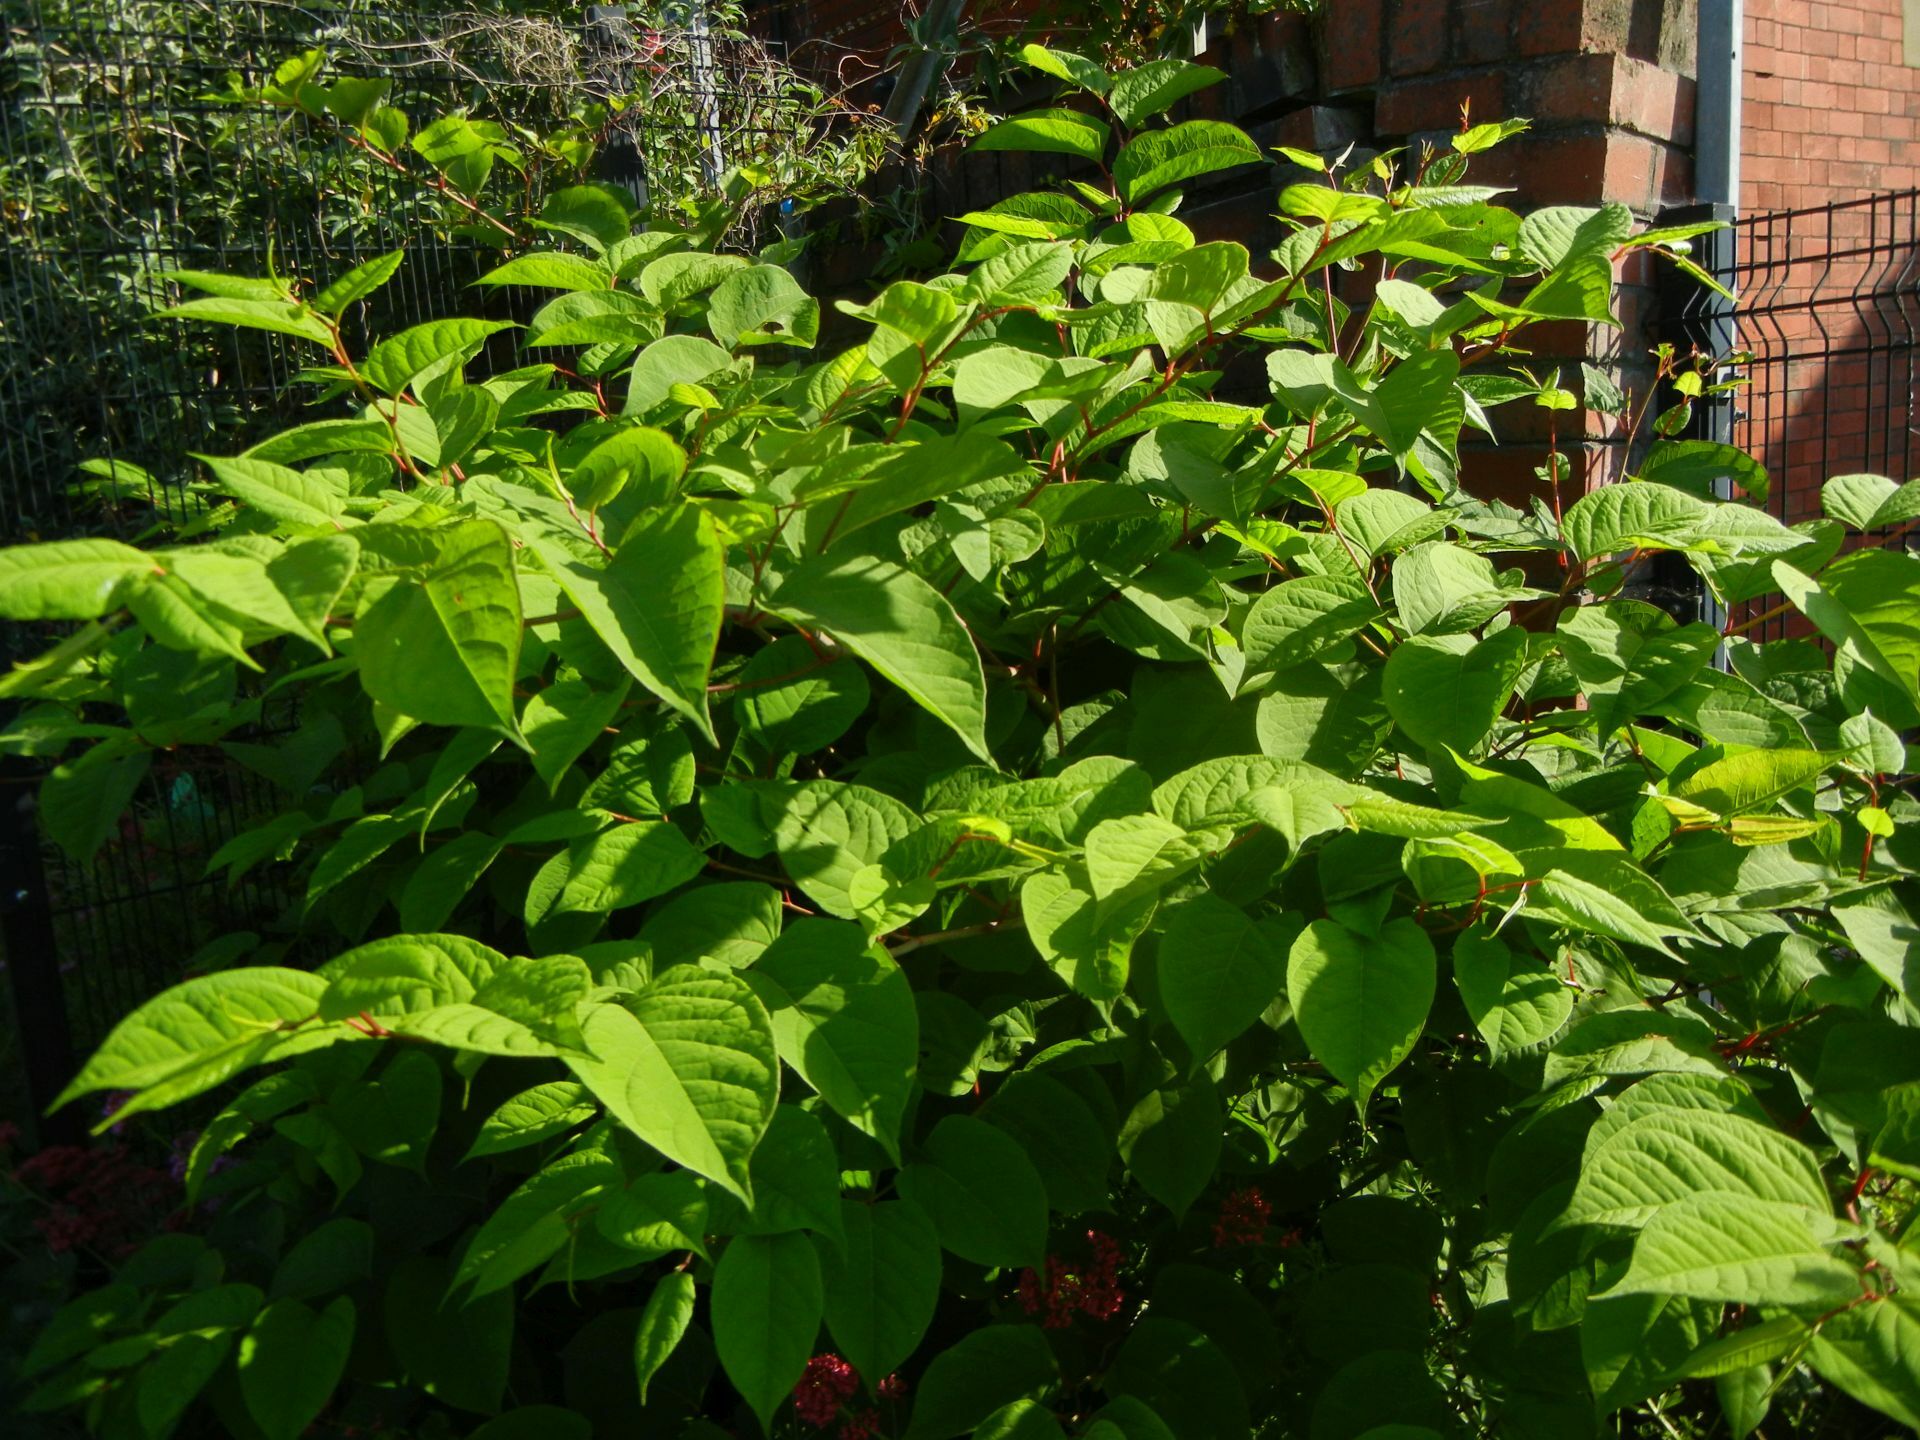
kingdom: Plantae
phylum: Tracheophyta
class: Magnoliopsida
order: Caryophyllales
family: Polygonaceae
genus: Reynoutria
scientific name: Reynoutria japonica
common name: Japanese knotweed
